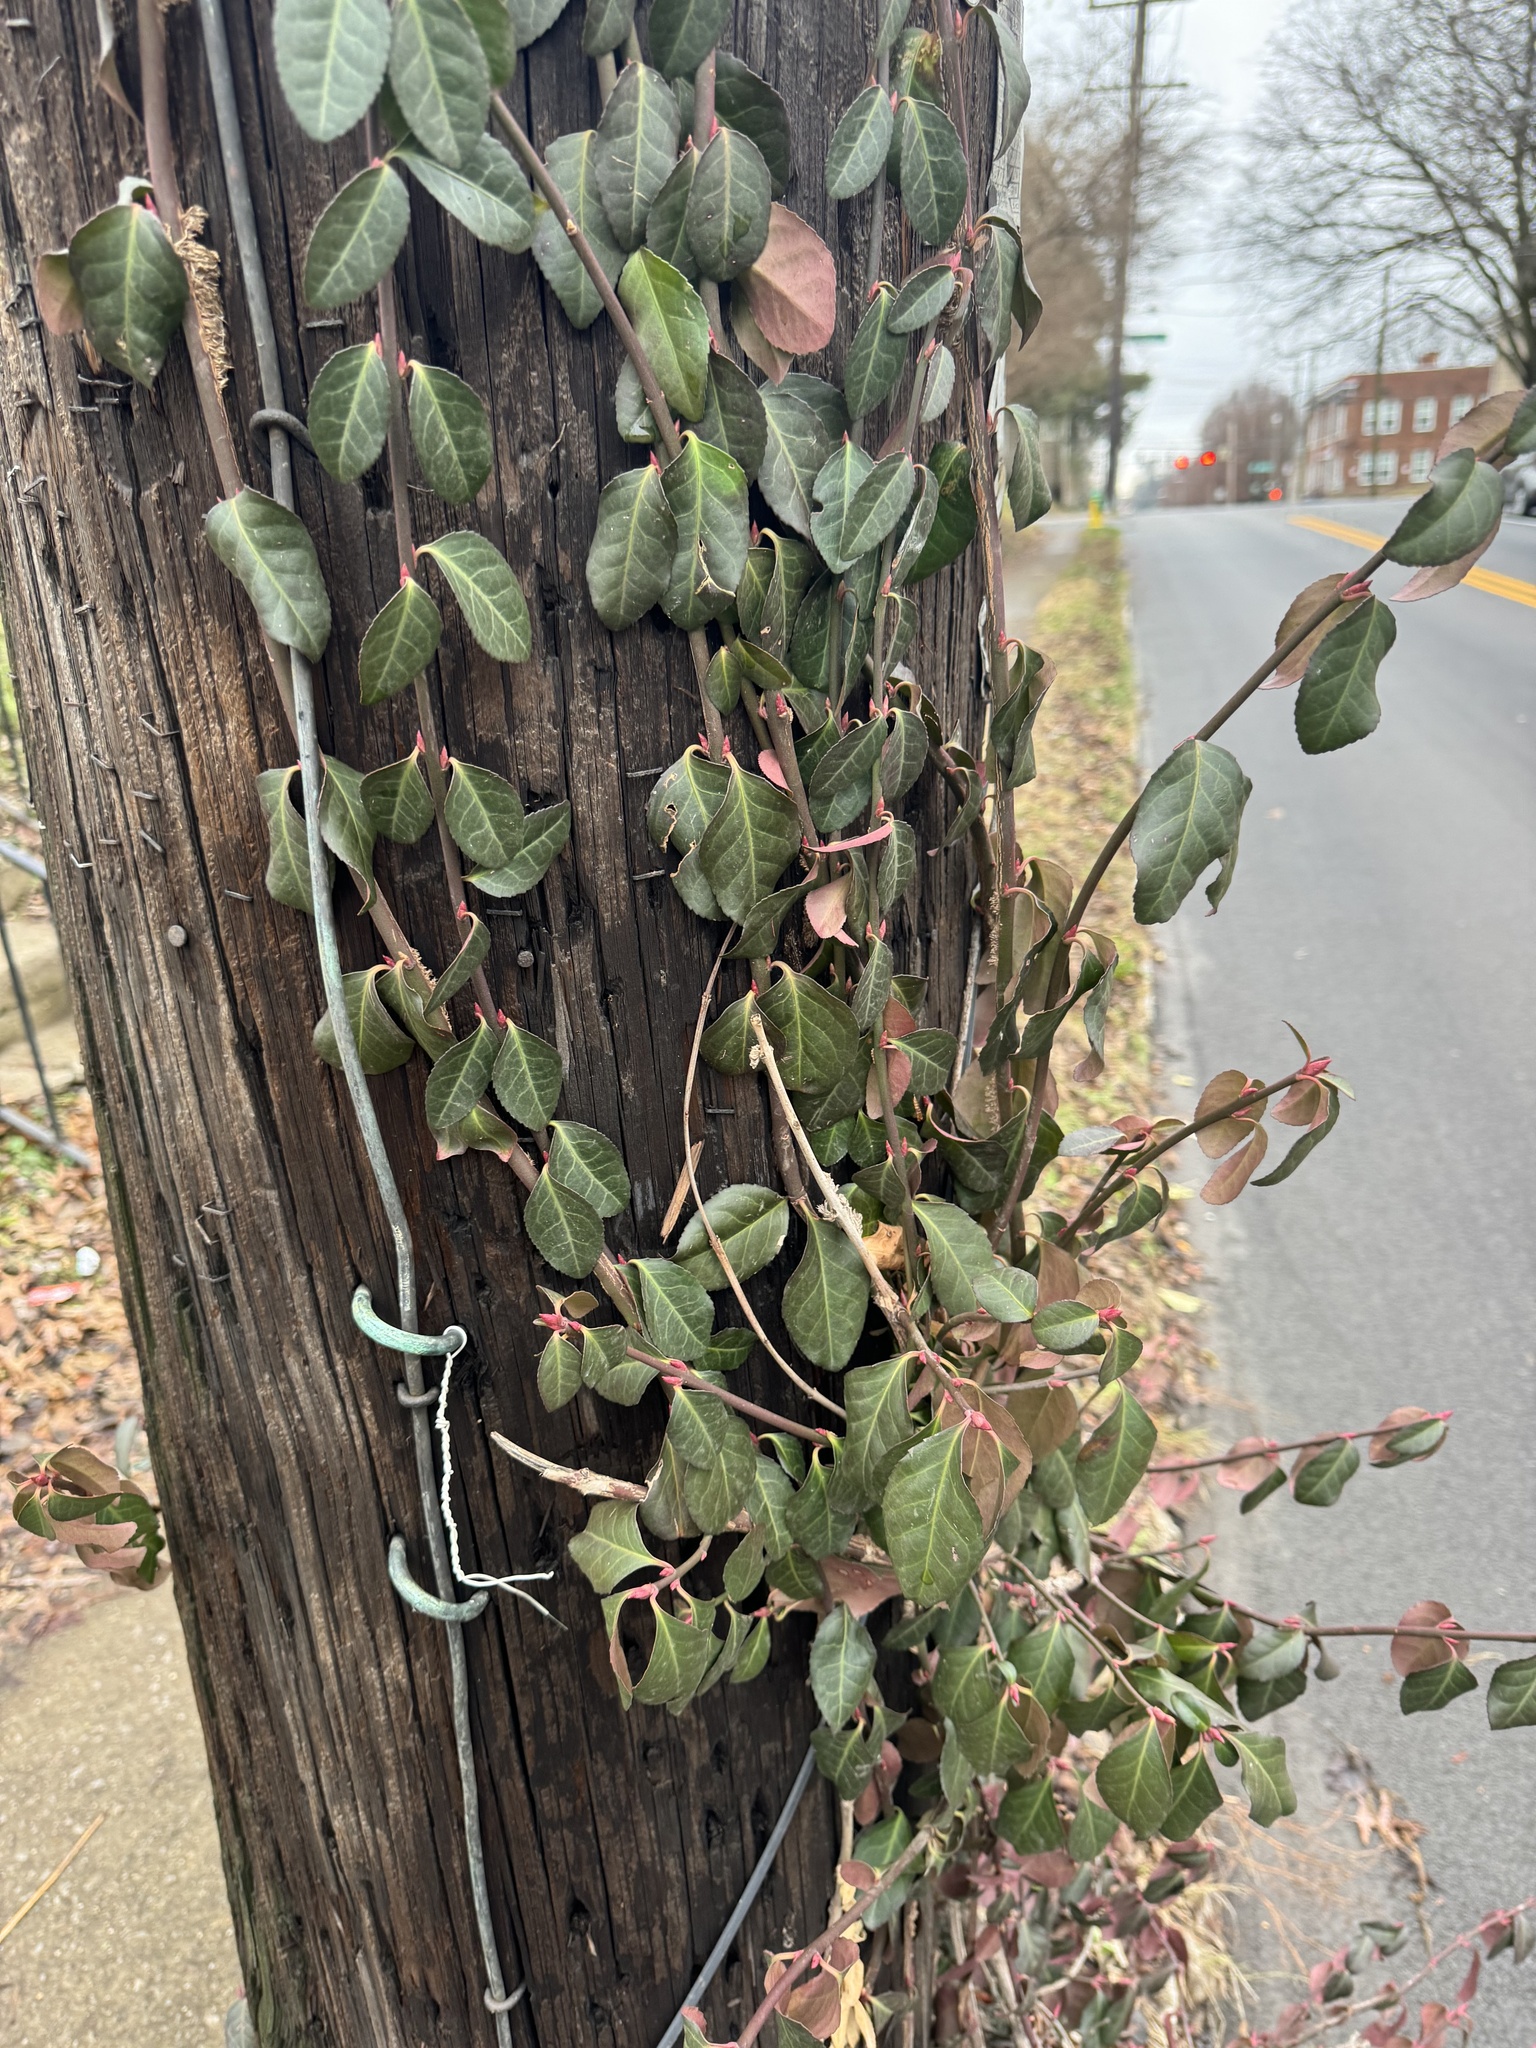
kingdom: Plantae
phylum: Tracheophyta
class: Magnoliopsida
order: Celastrales
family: Celastraceae
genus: Euonymus
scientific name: Euonymus fortunei
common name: Climbing euonymus
